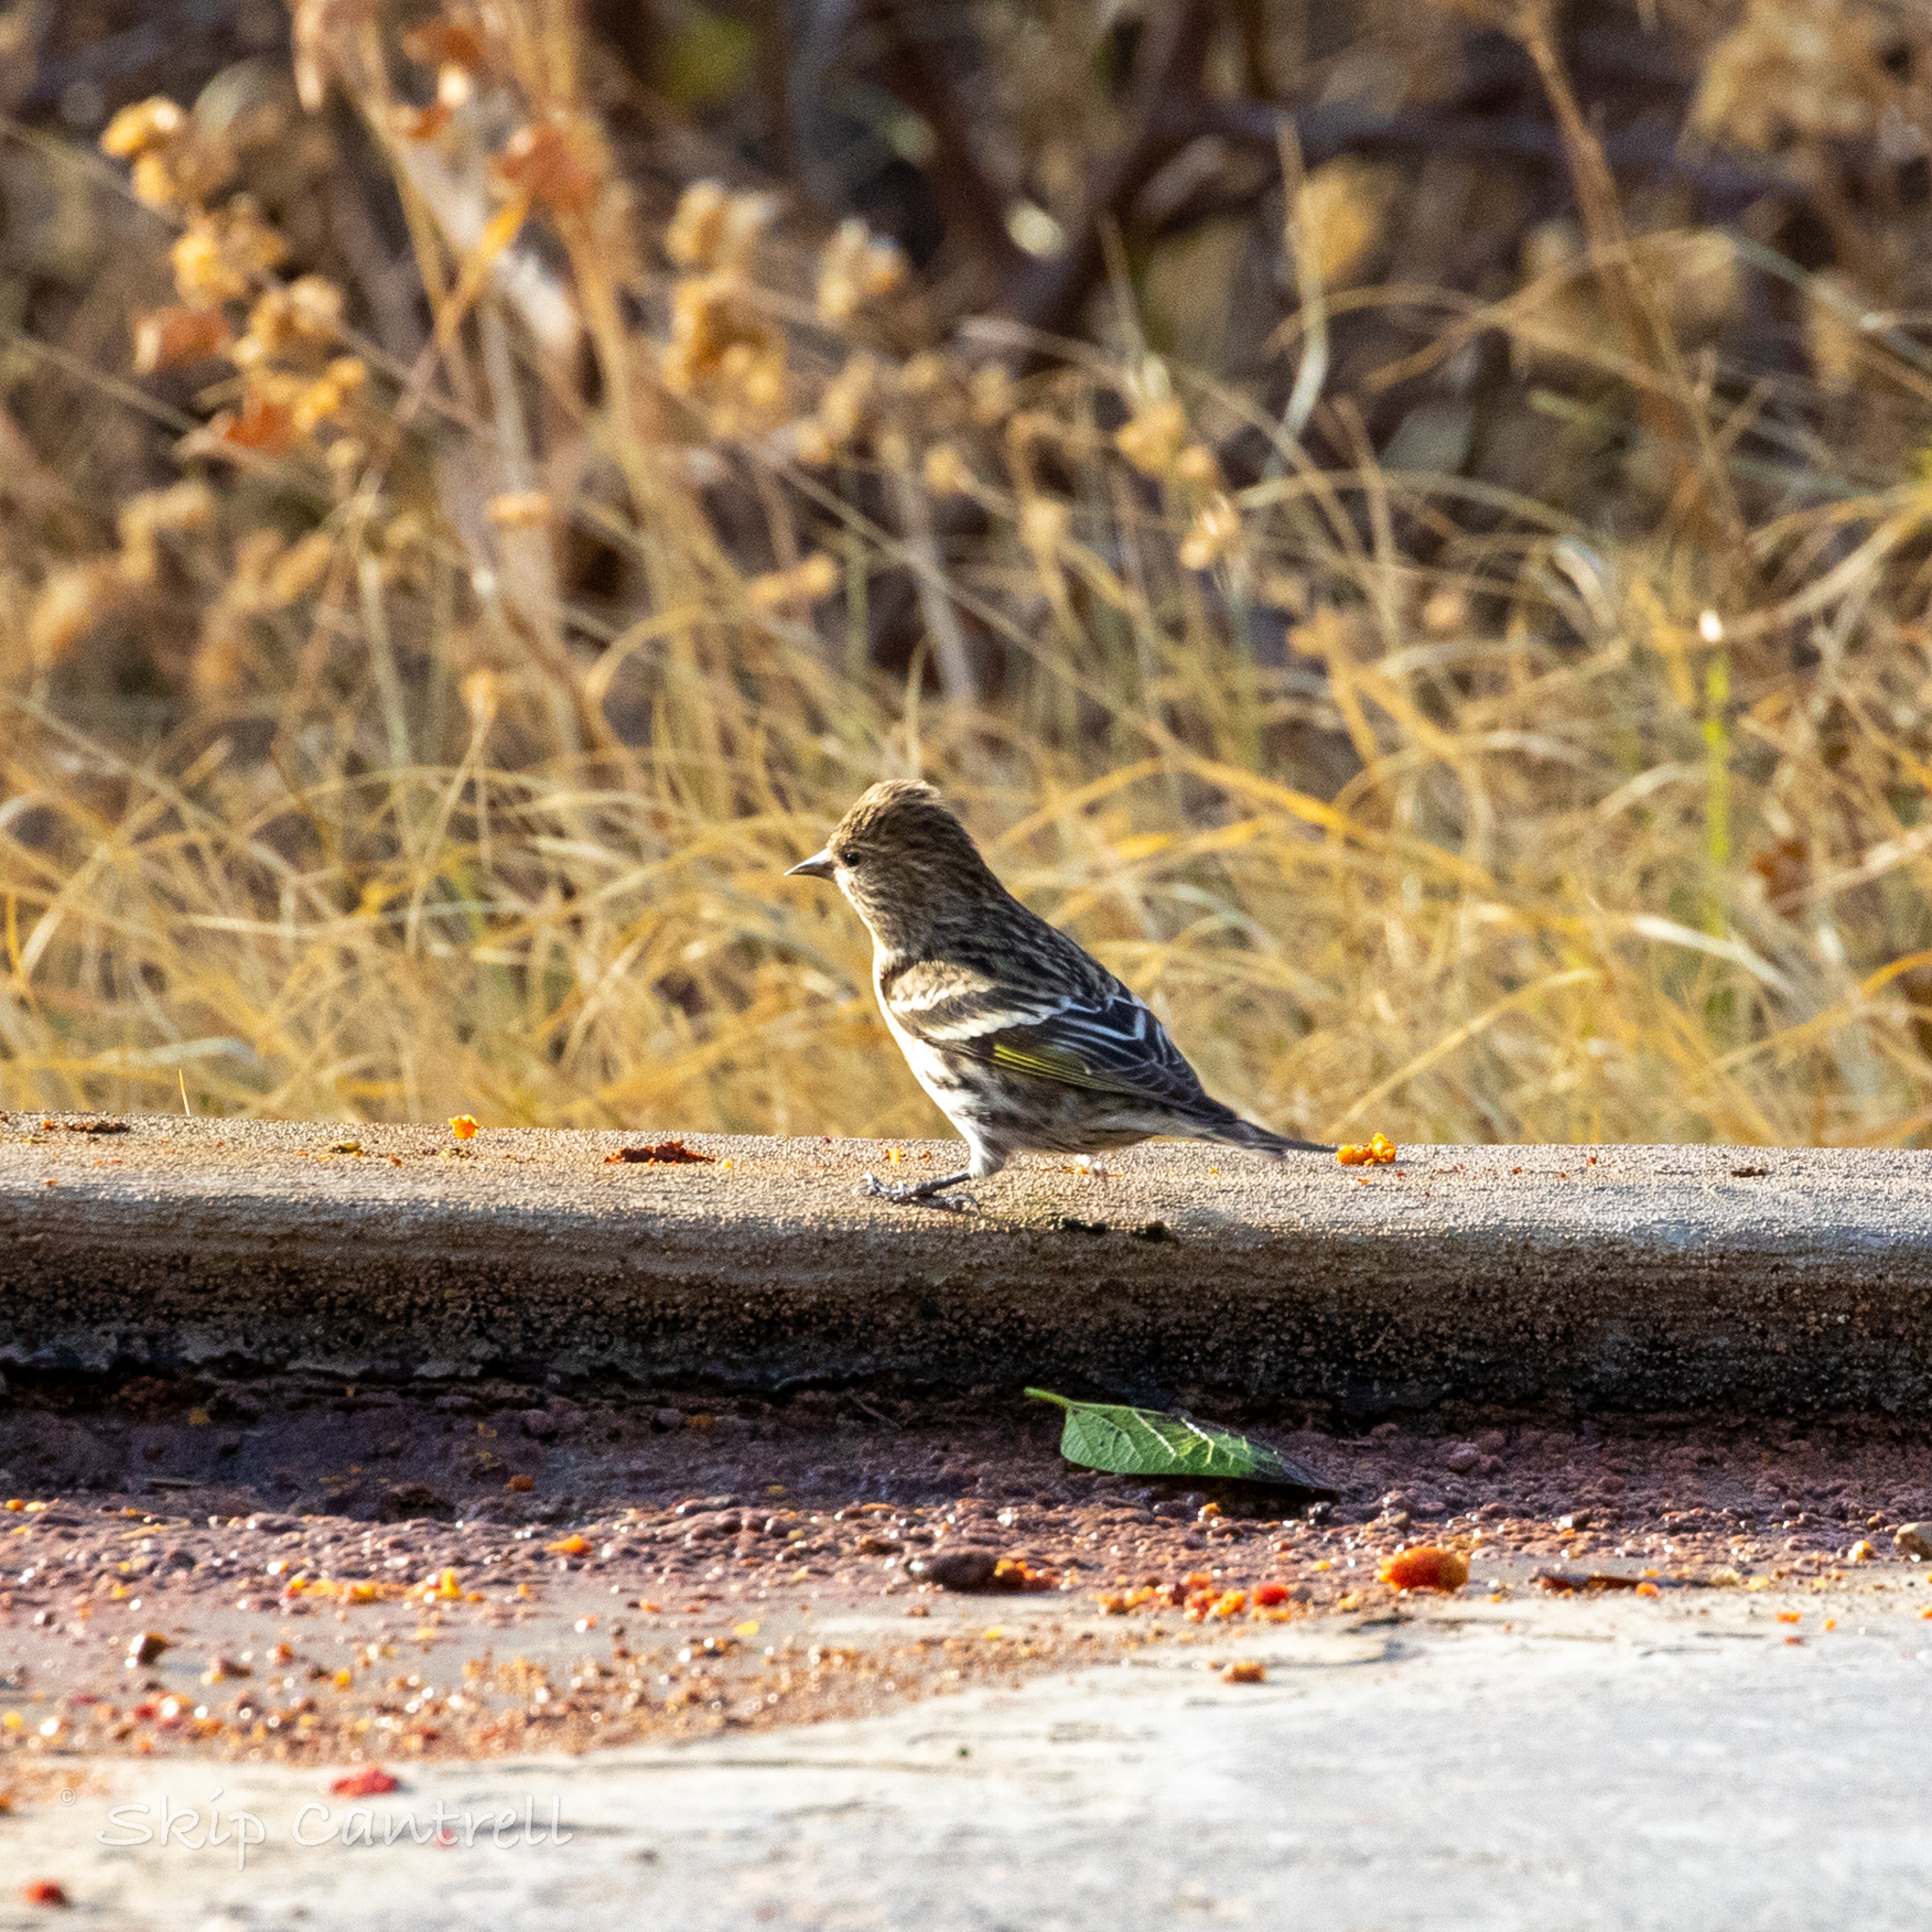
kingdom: Animalia
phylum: Chordata
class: Aves
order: Passeriformes
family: Fringillidae
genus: Spinus
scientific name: Spinus pinus
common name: Pine siskin
